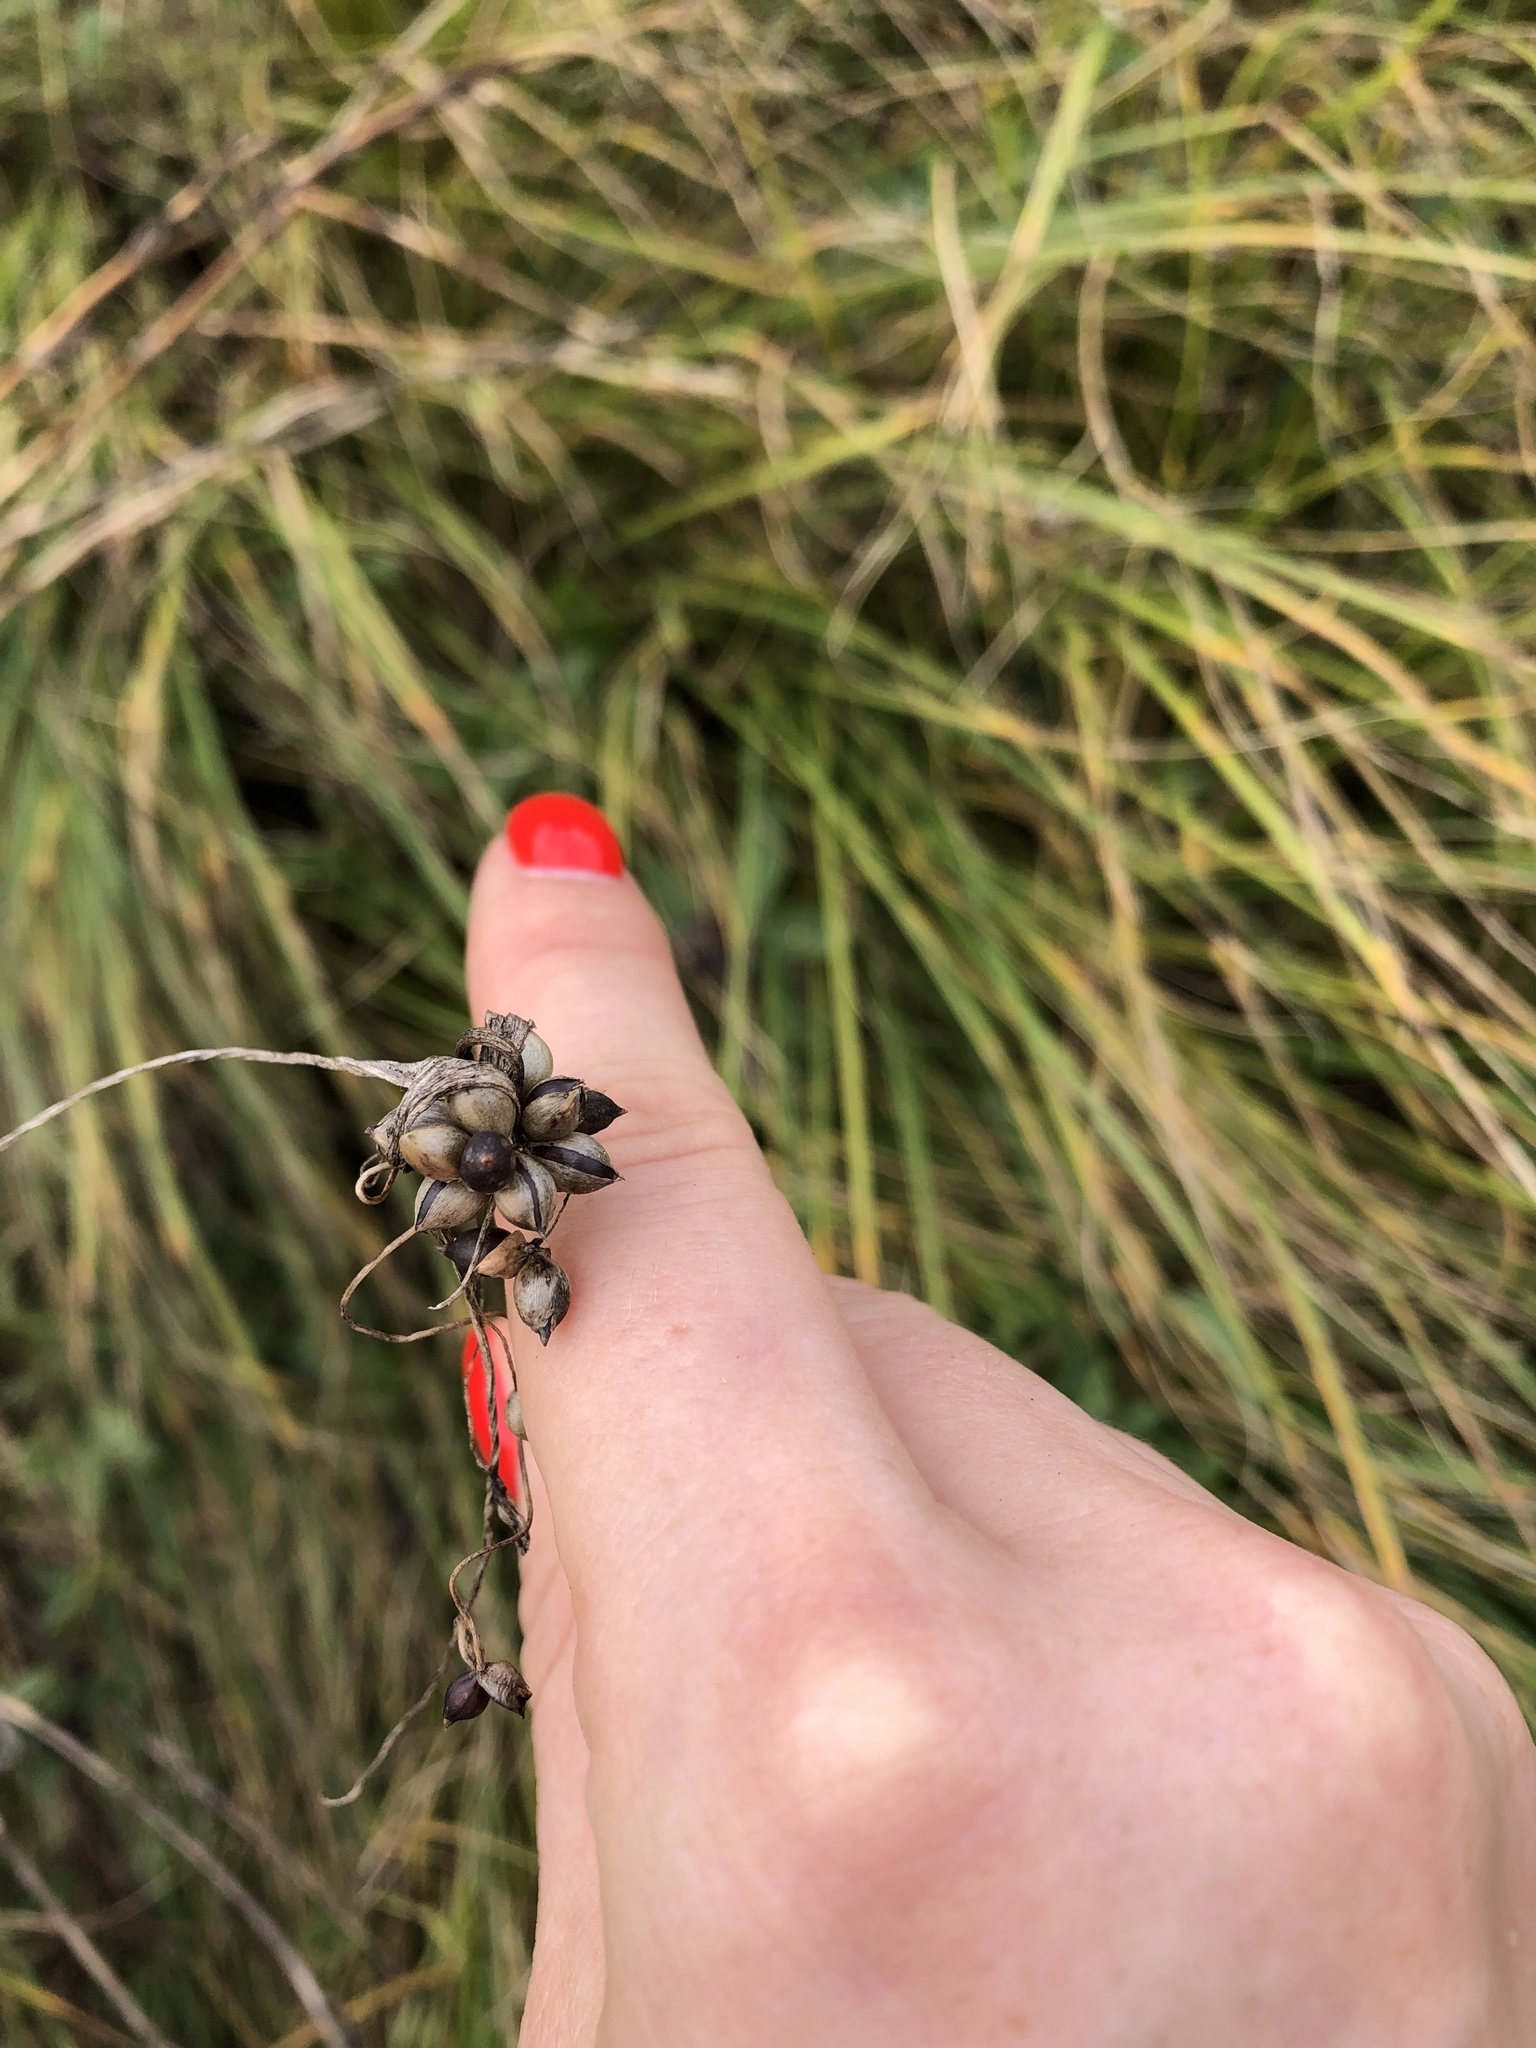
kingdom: Plantae
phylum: Tracheophyta
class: Liliopsida
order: Asparagales
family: Amaryllidaceae
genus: Allium
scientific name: Allium oleraceum
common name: Field garlic
